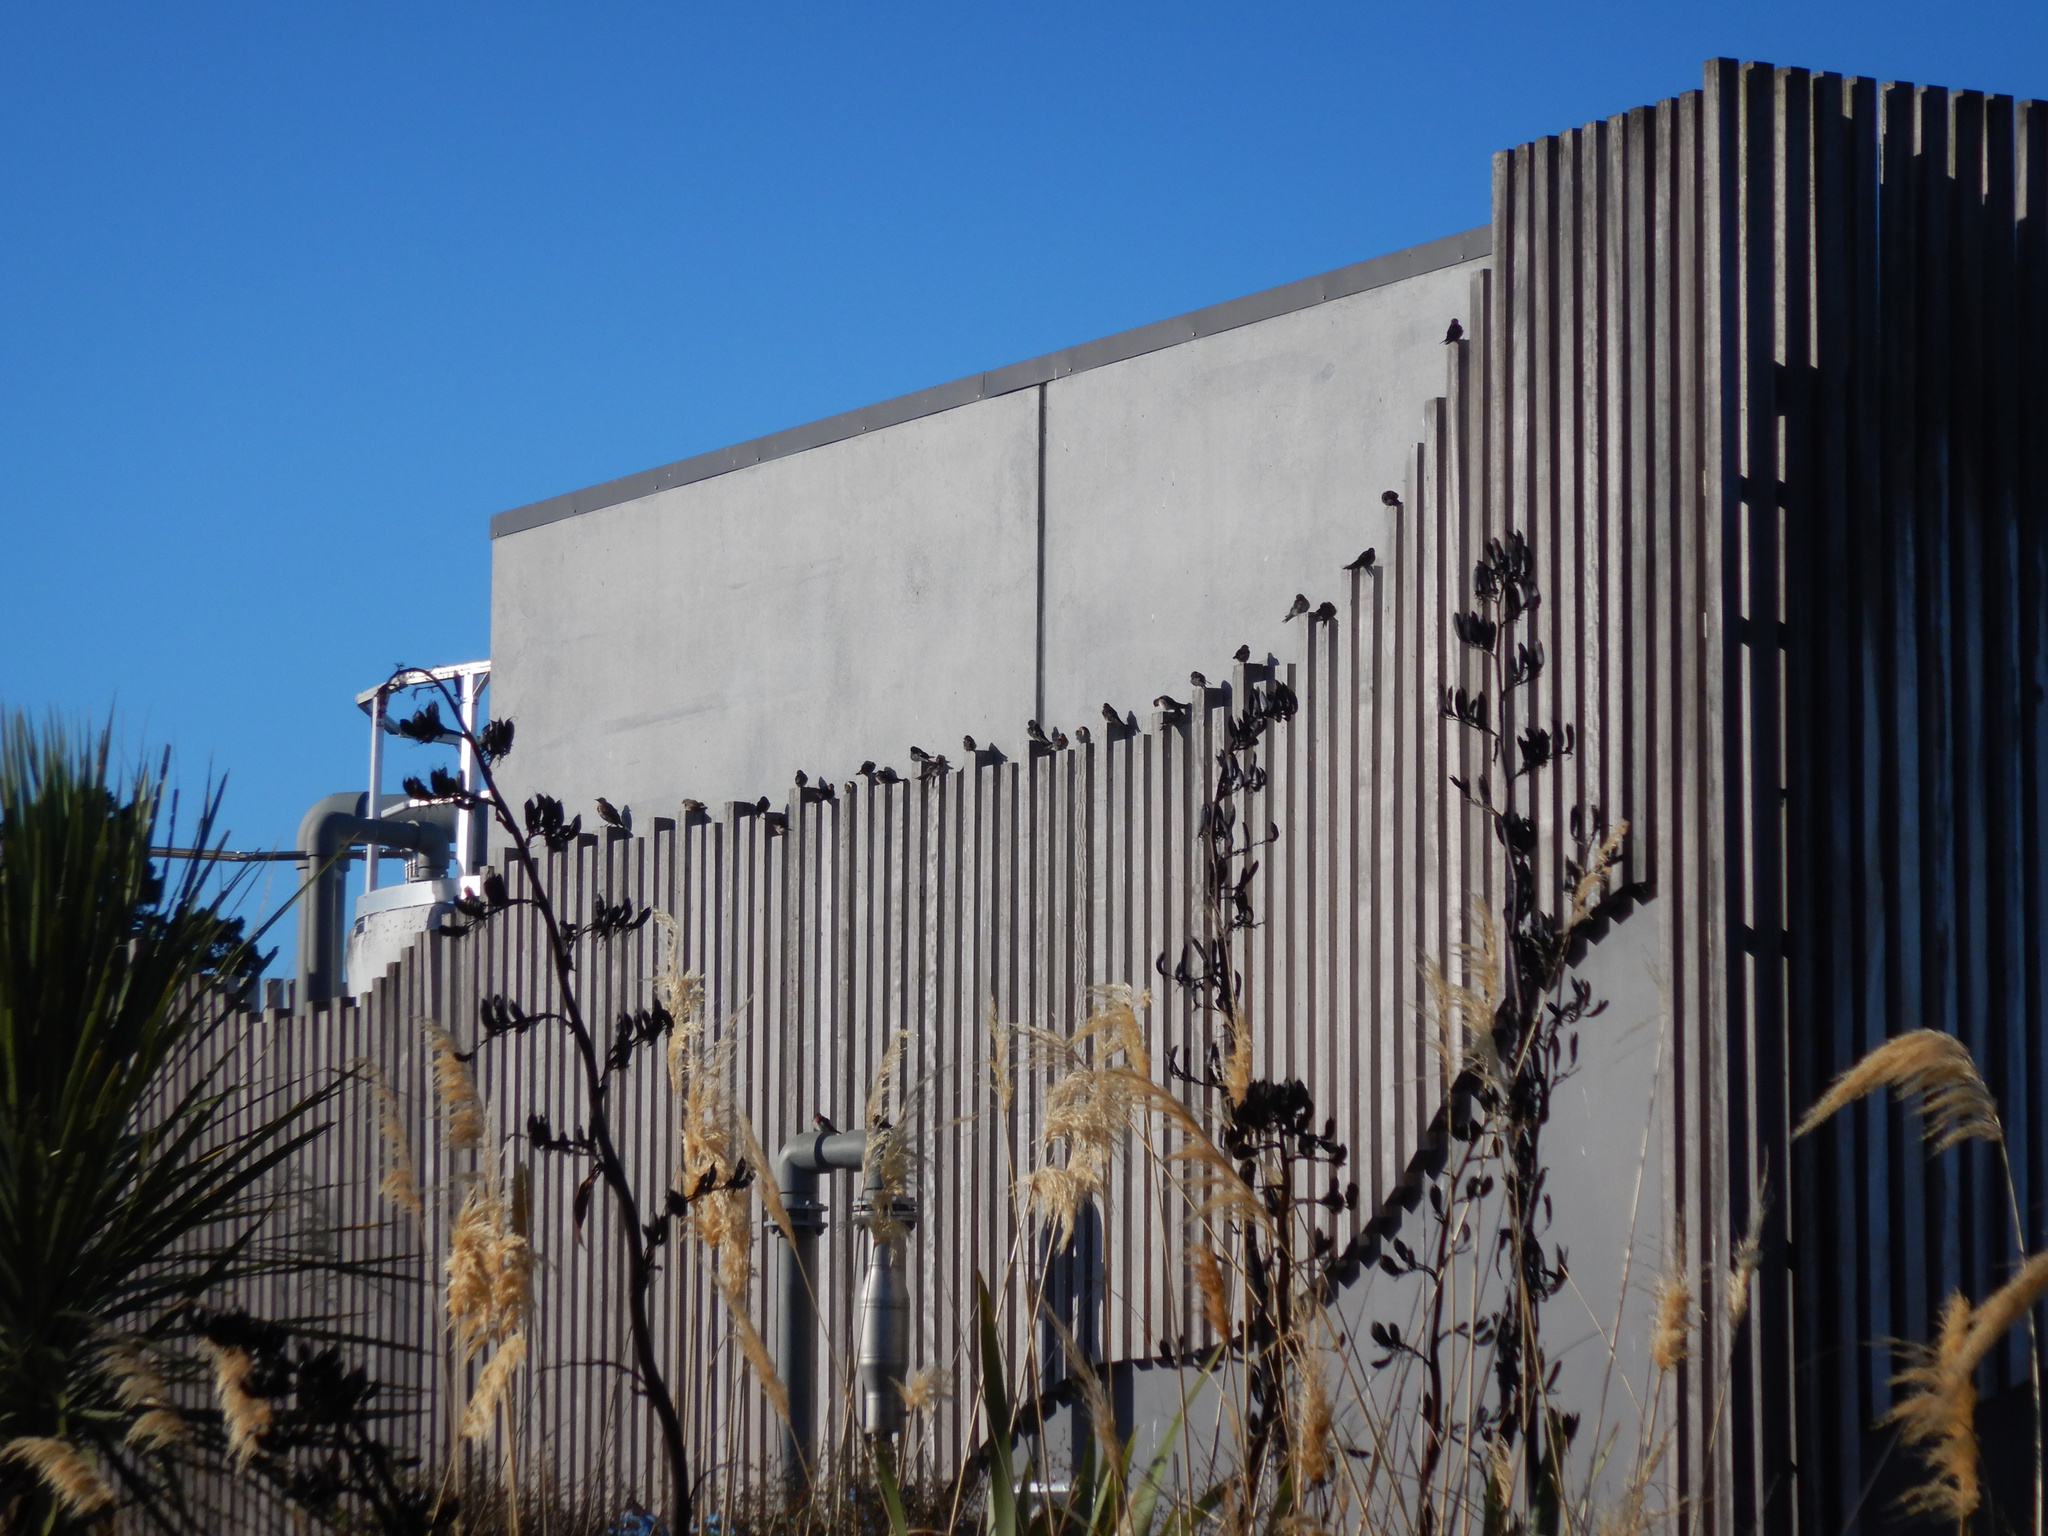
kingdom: Animalia
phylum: Chordata
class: Aves
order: Passeriformes
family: Hirundinidae
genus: Hirundo
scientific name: Hirundo neoxena
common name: Welcome swallow
